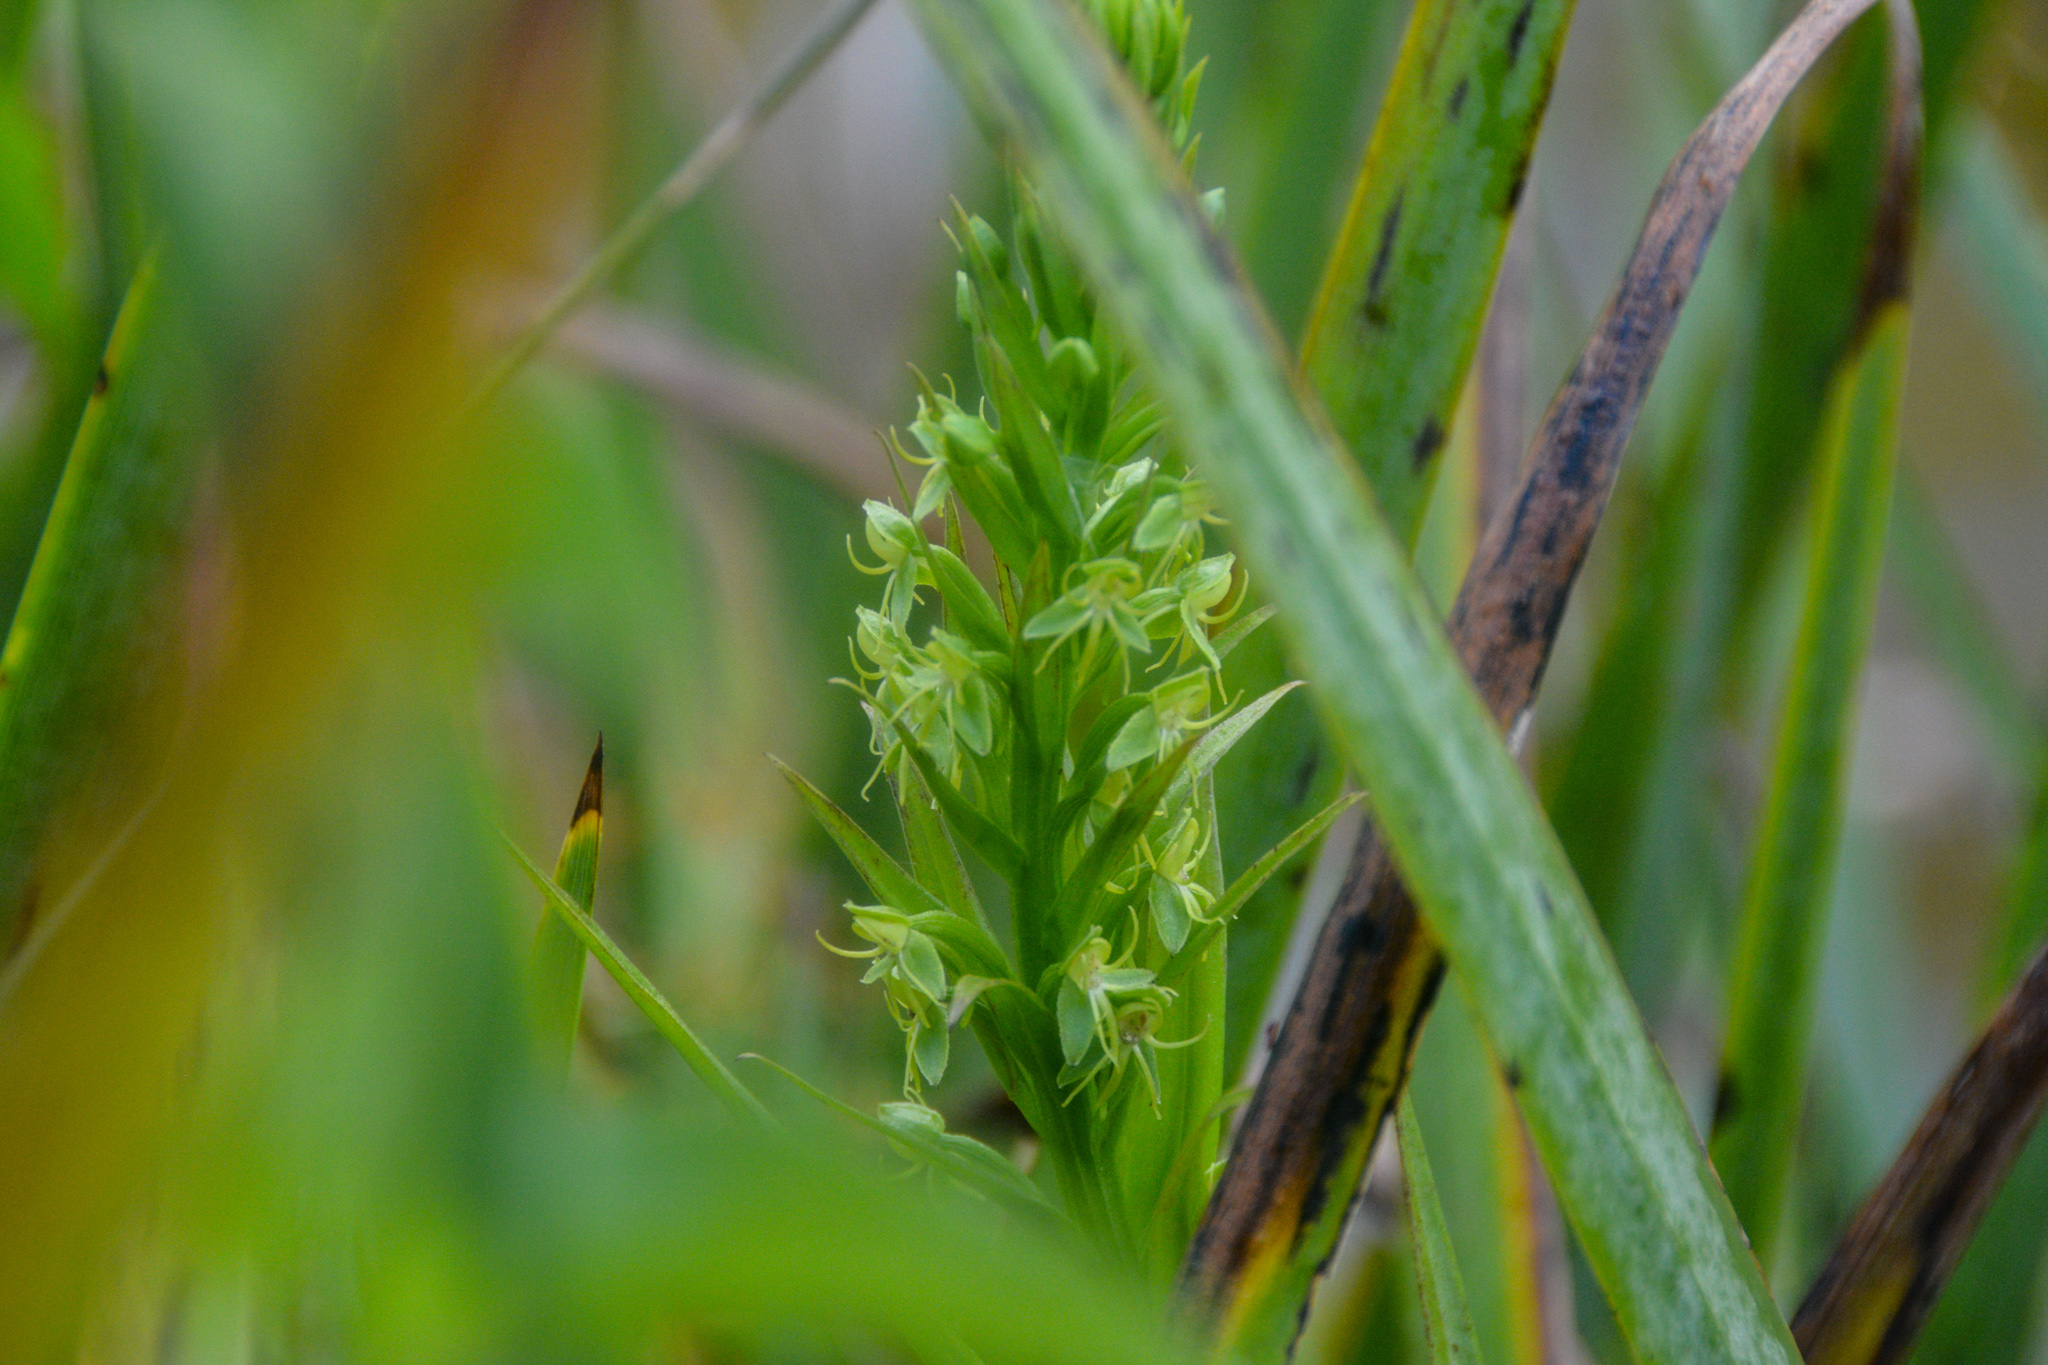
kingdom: Plantae
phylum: Tracheophyta
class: Liliopsida
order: Asparagales
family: Orchidaceae
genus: Habenaria
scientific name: Habenaria repens
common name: Water orchid
